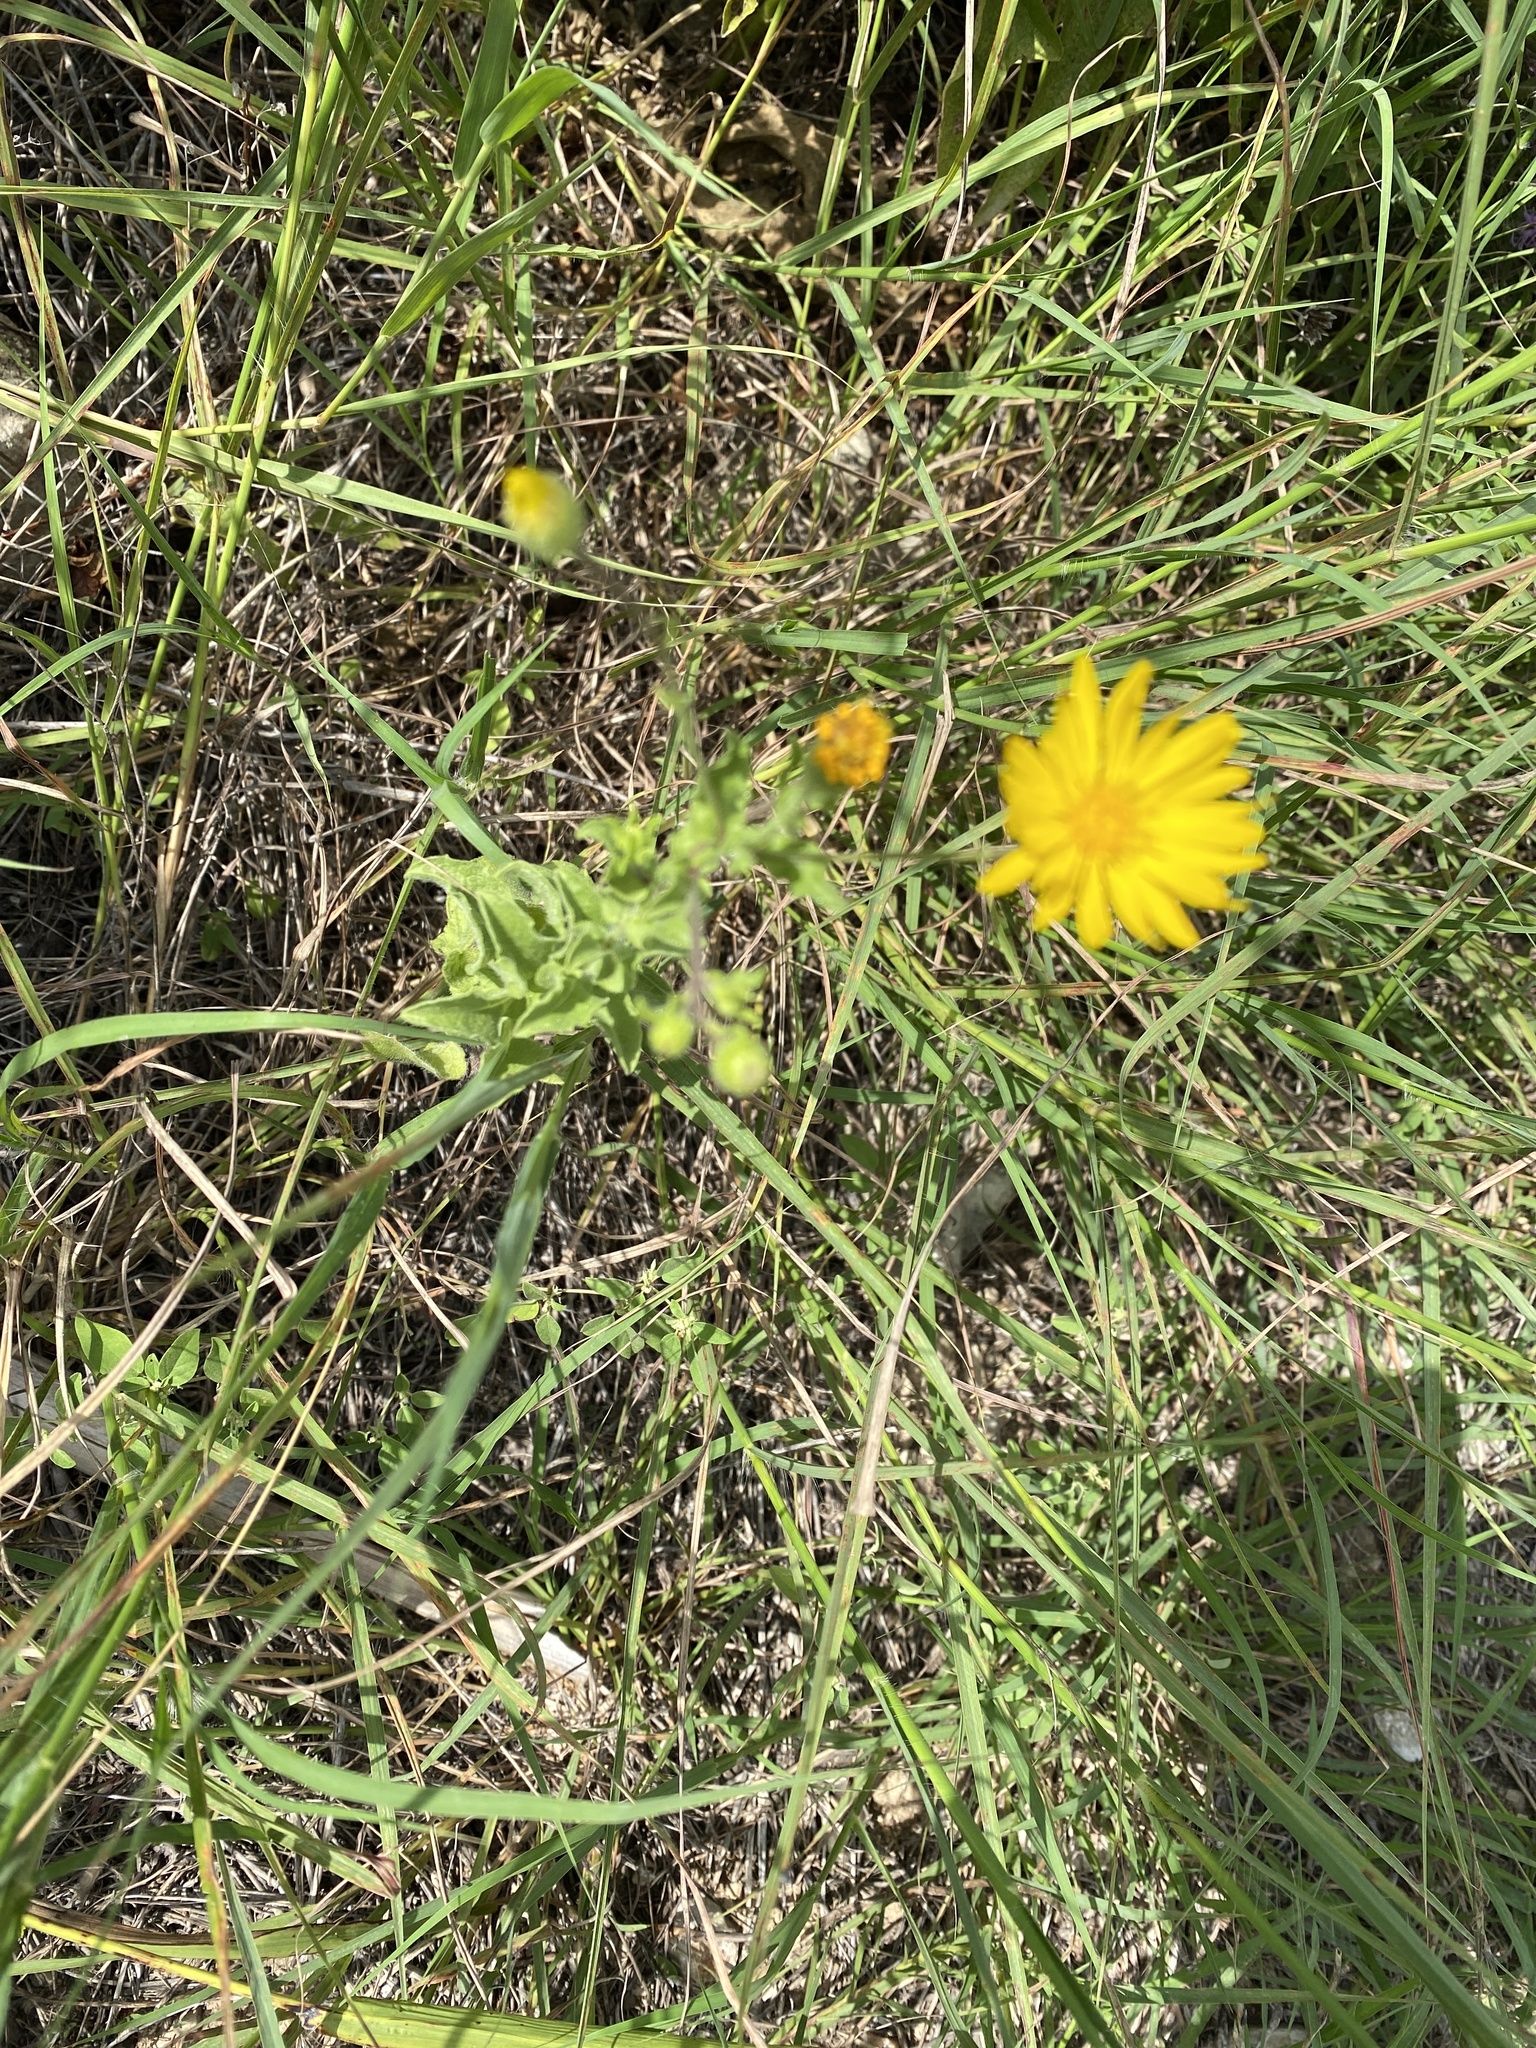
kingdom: Plantae
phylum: Tracheophyta
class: Magnoliopsida
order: Asterales
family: Asteraceae
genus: Heterotheca
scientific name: Heterotheca subaxillaris
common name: Camphorweed
